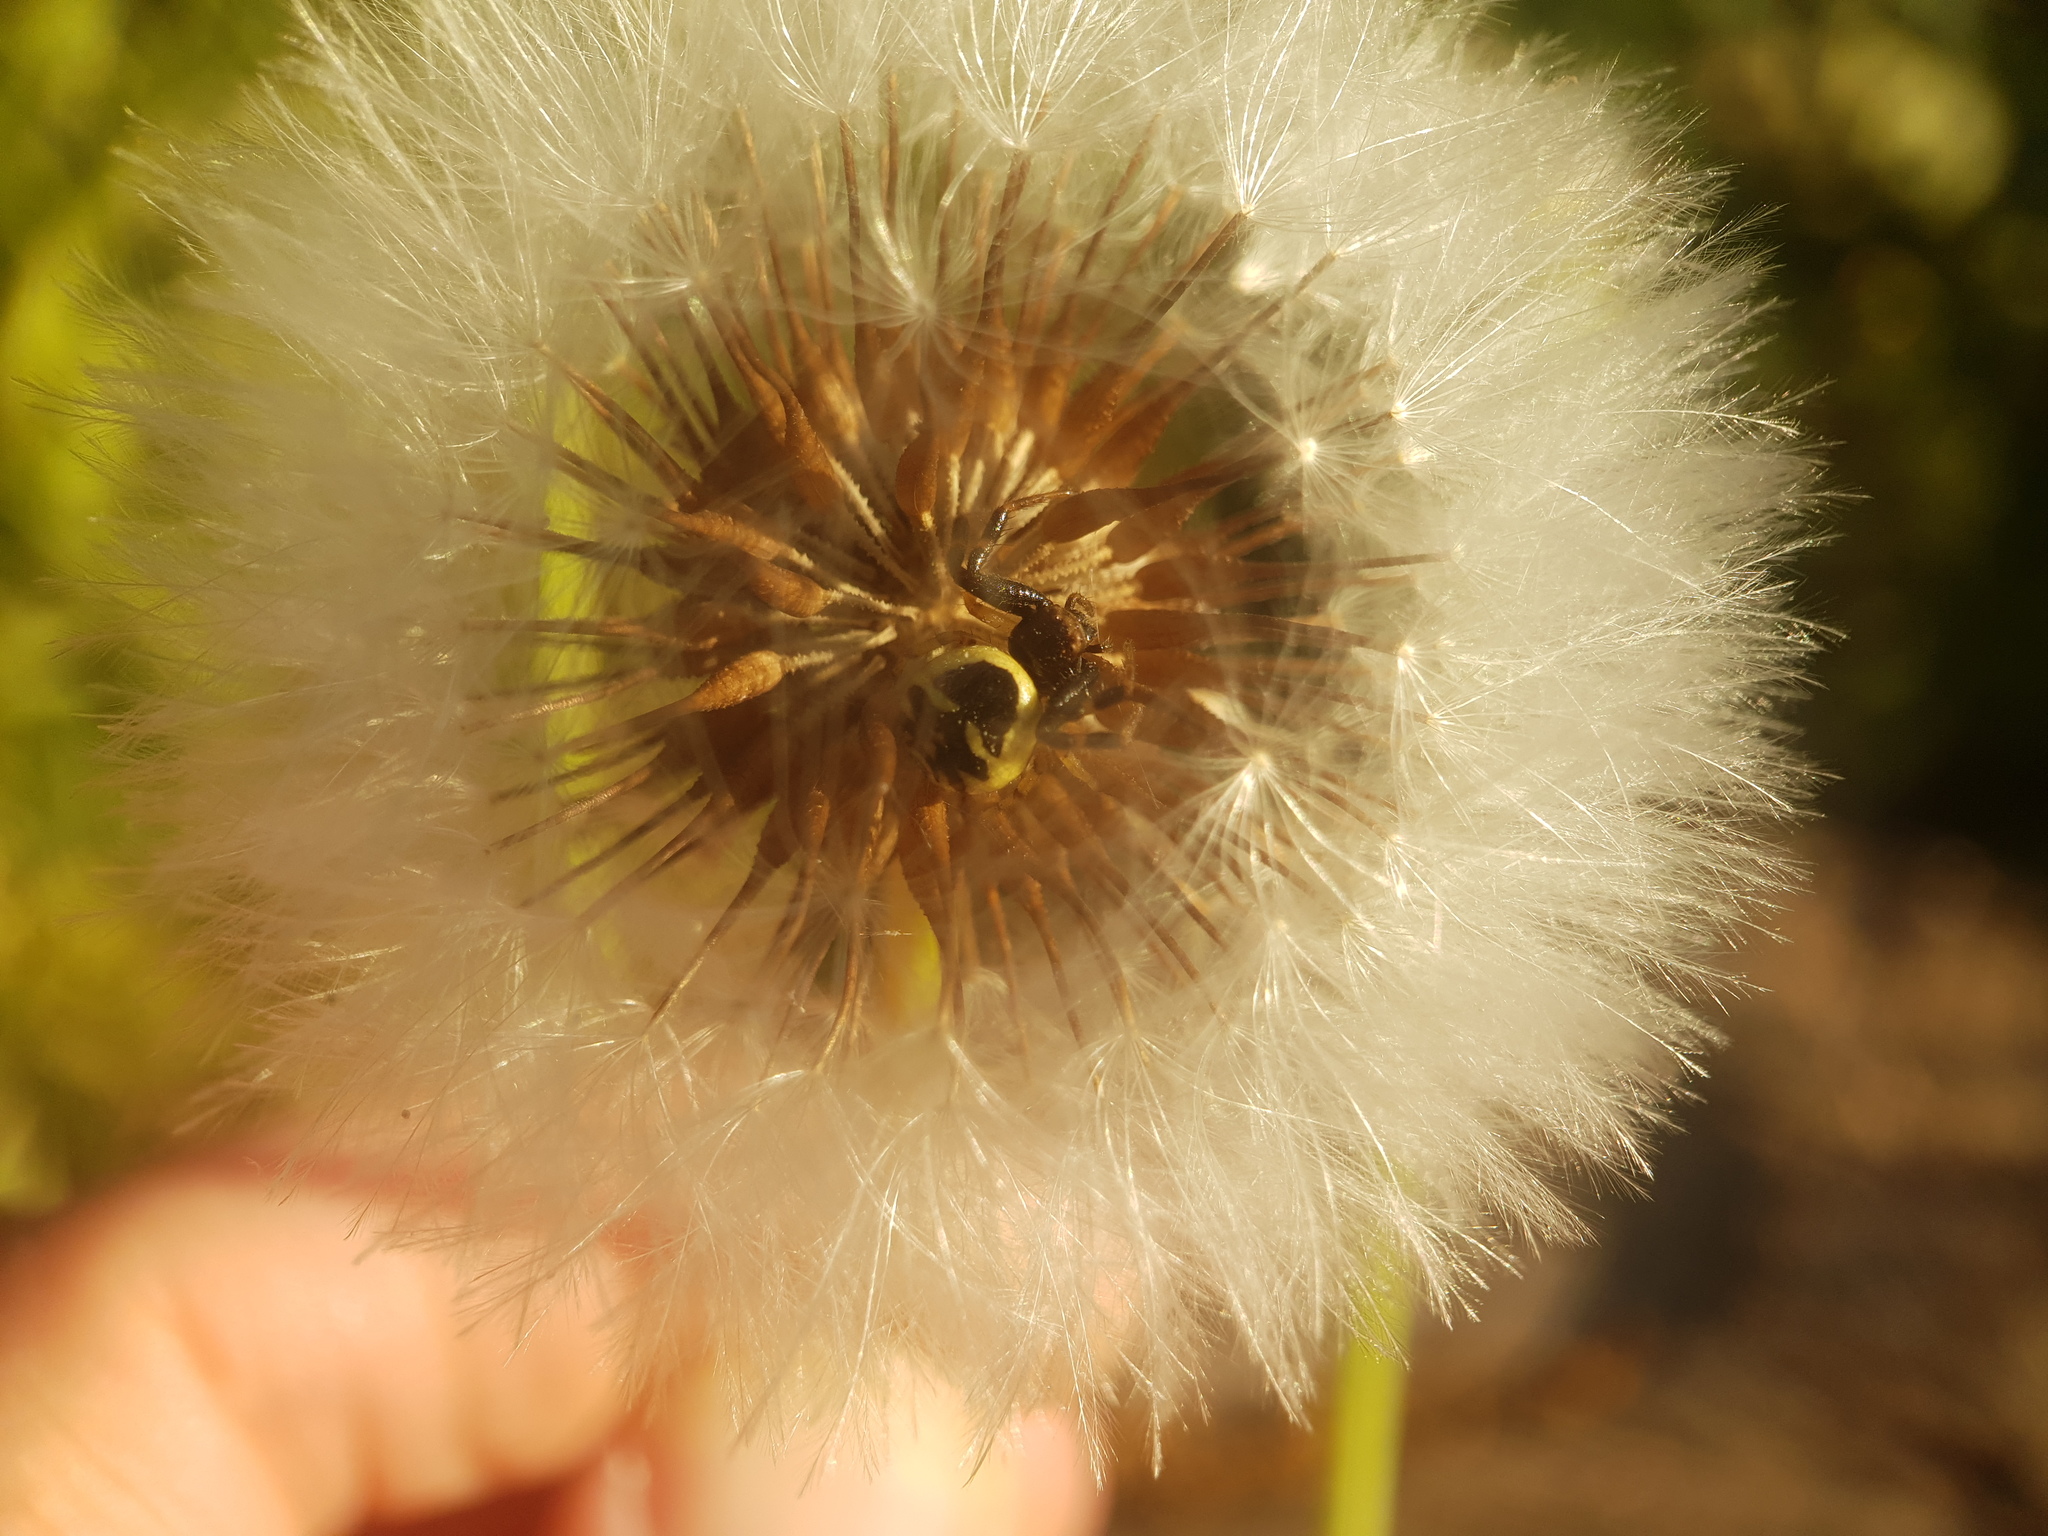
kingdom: Animalia
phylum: Arthropoda
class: Arachnida
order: Araneae
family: Thomisidae
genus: Synema
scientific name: Synema globosum
